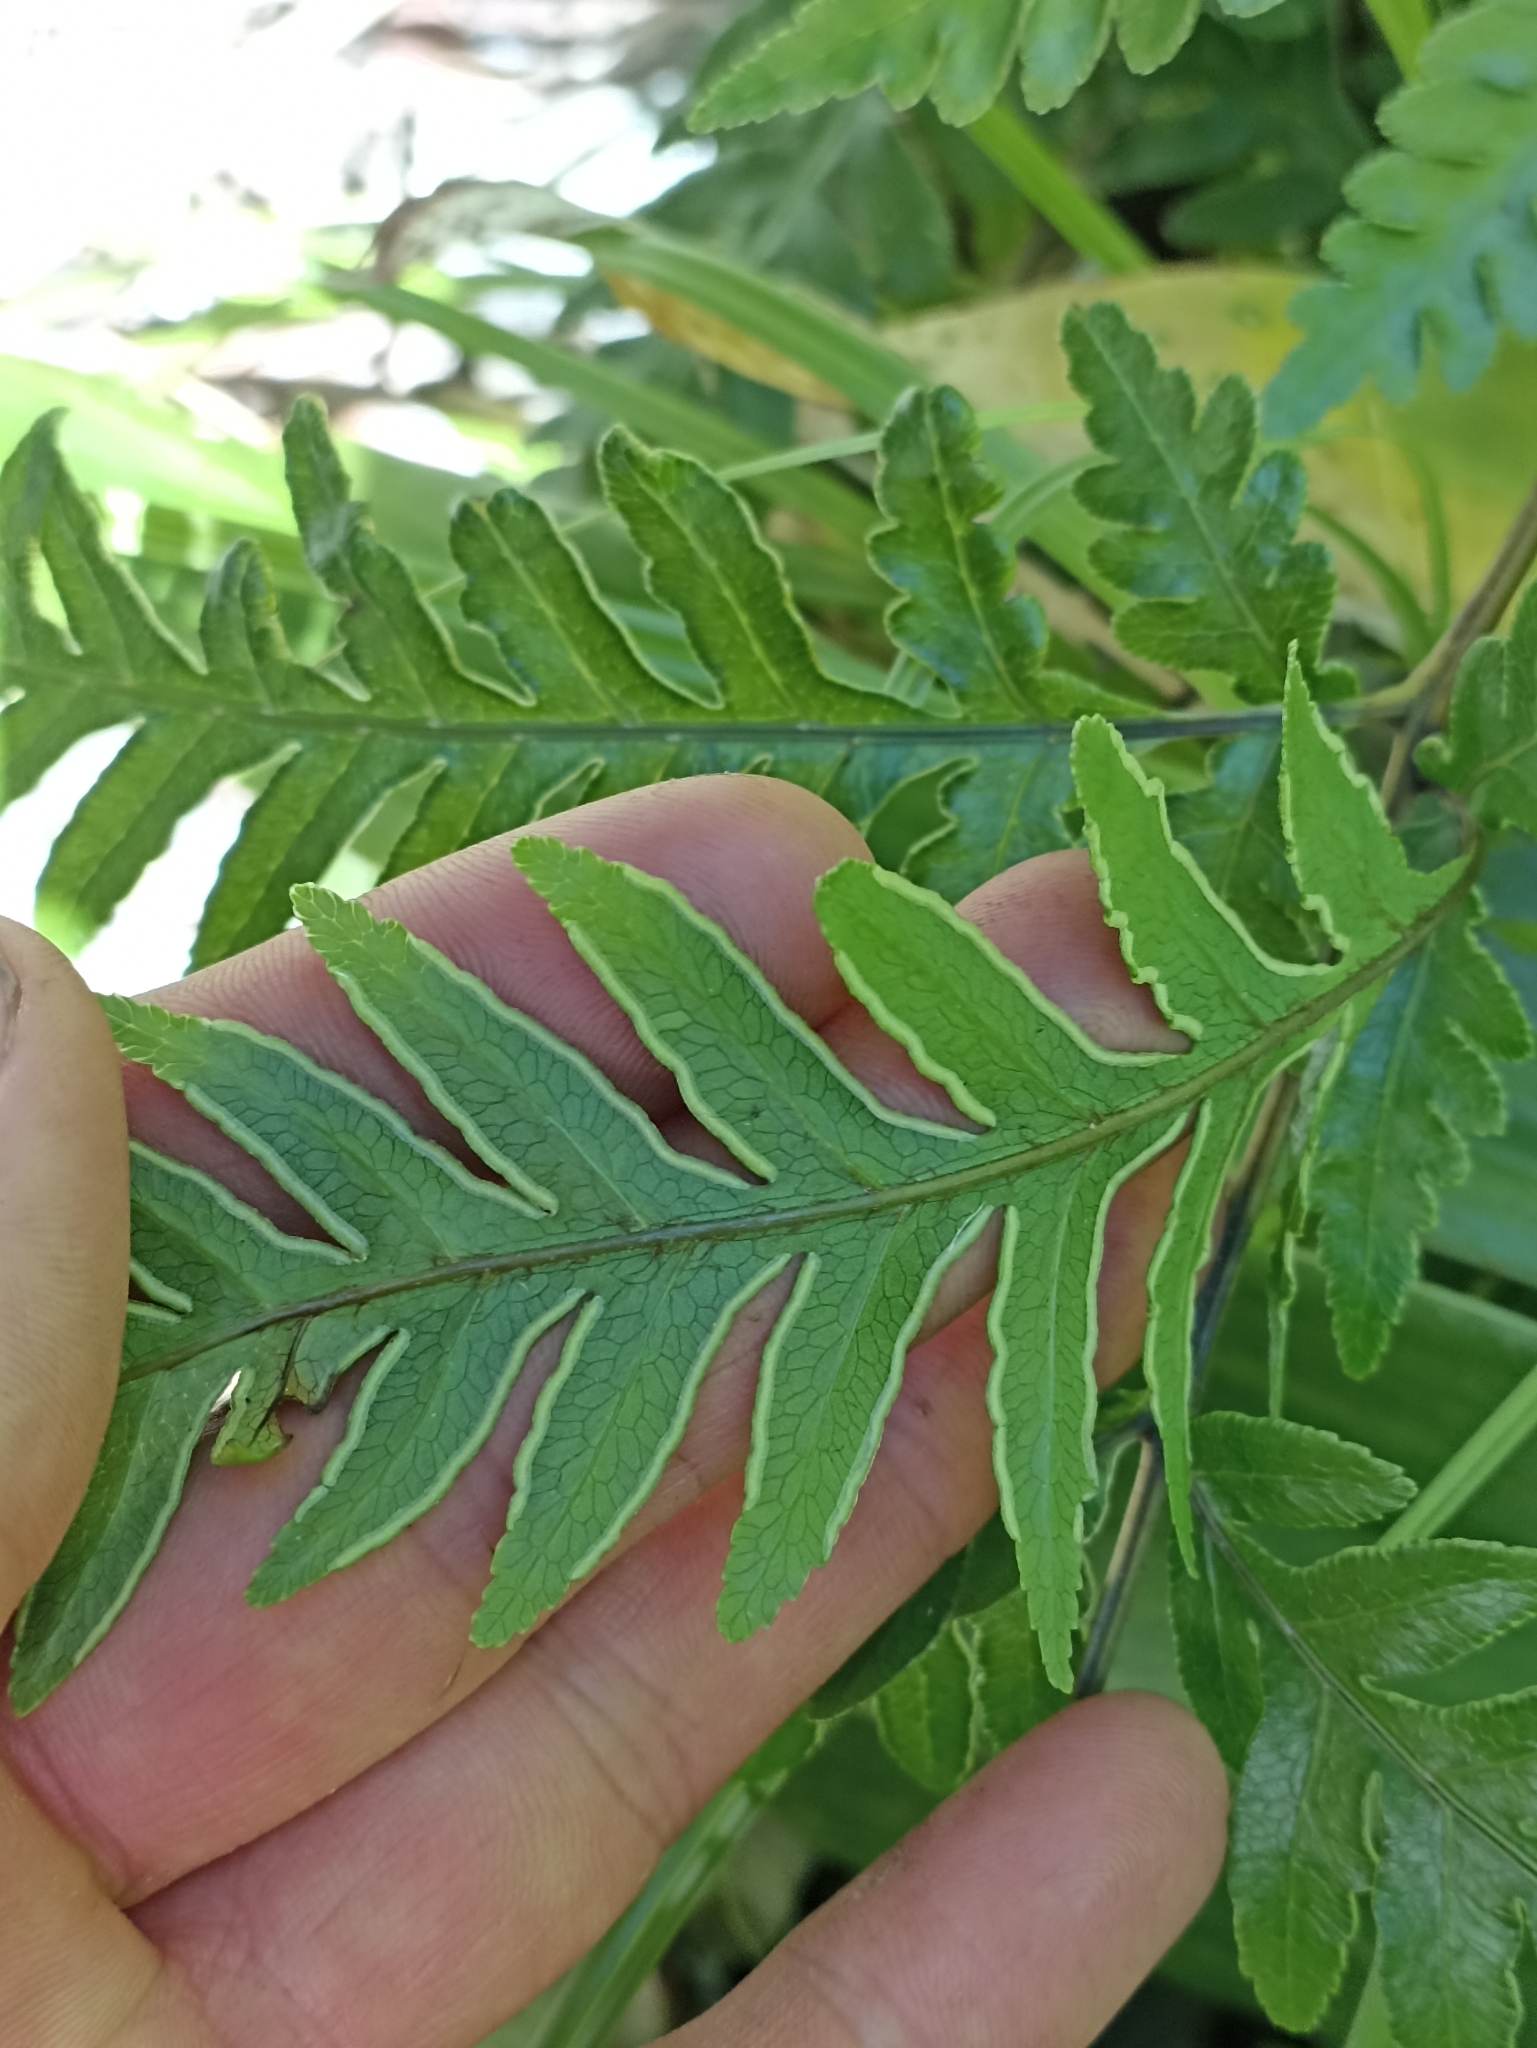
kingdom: Plantae
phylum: Tracheophyta
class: Polypodiopsida
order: Polypodiales
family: Pteridaceae
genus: Pteris
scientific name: Pteris carsei
